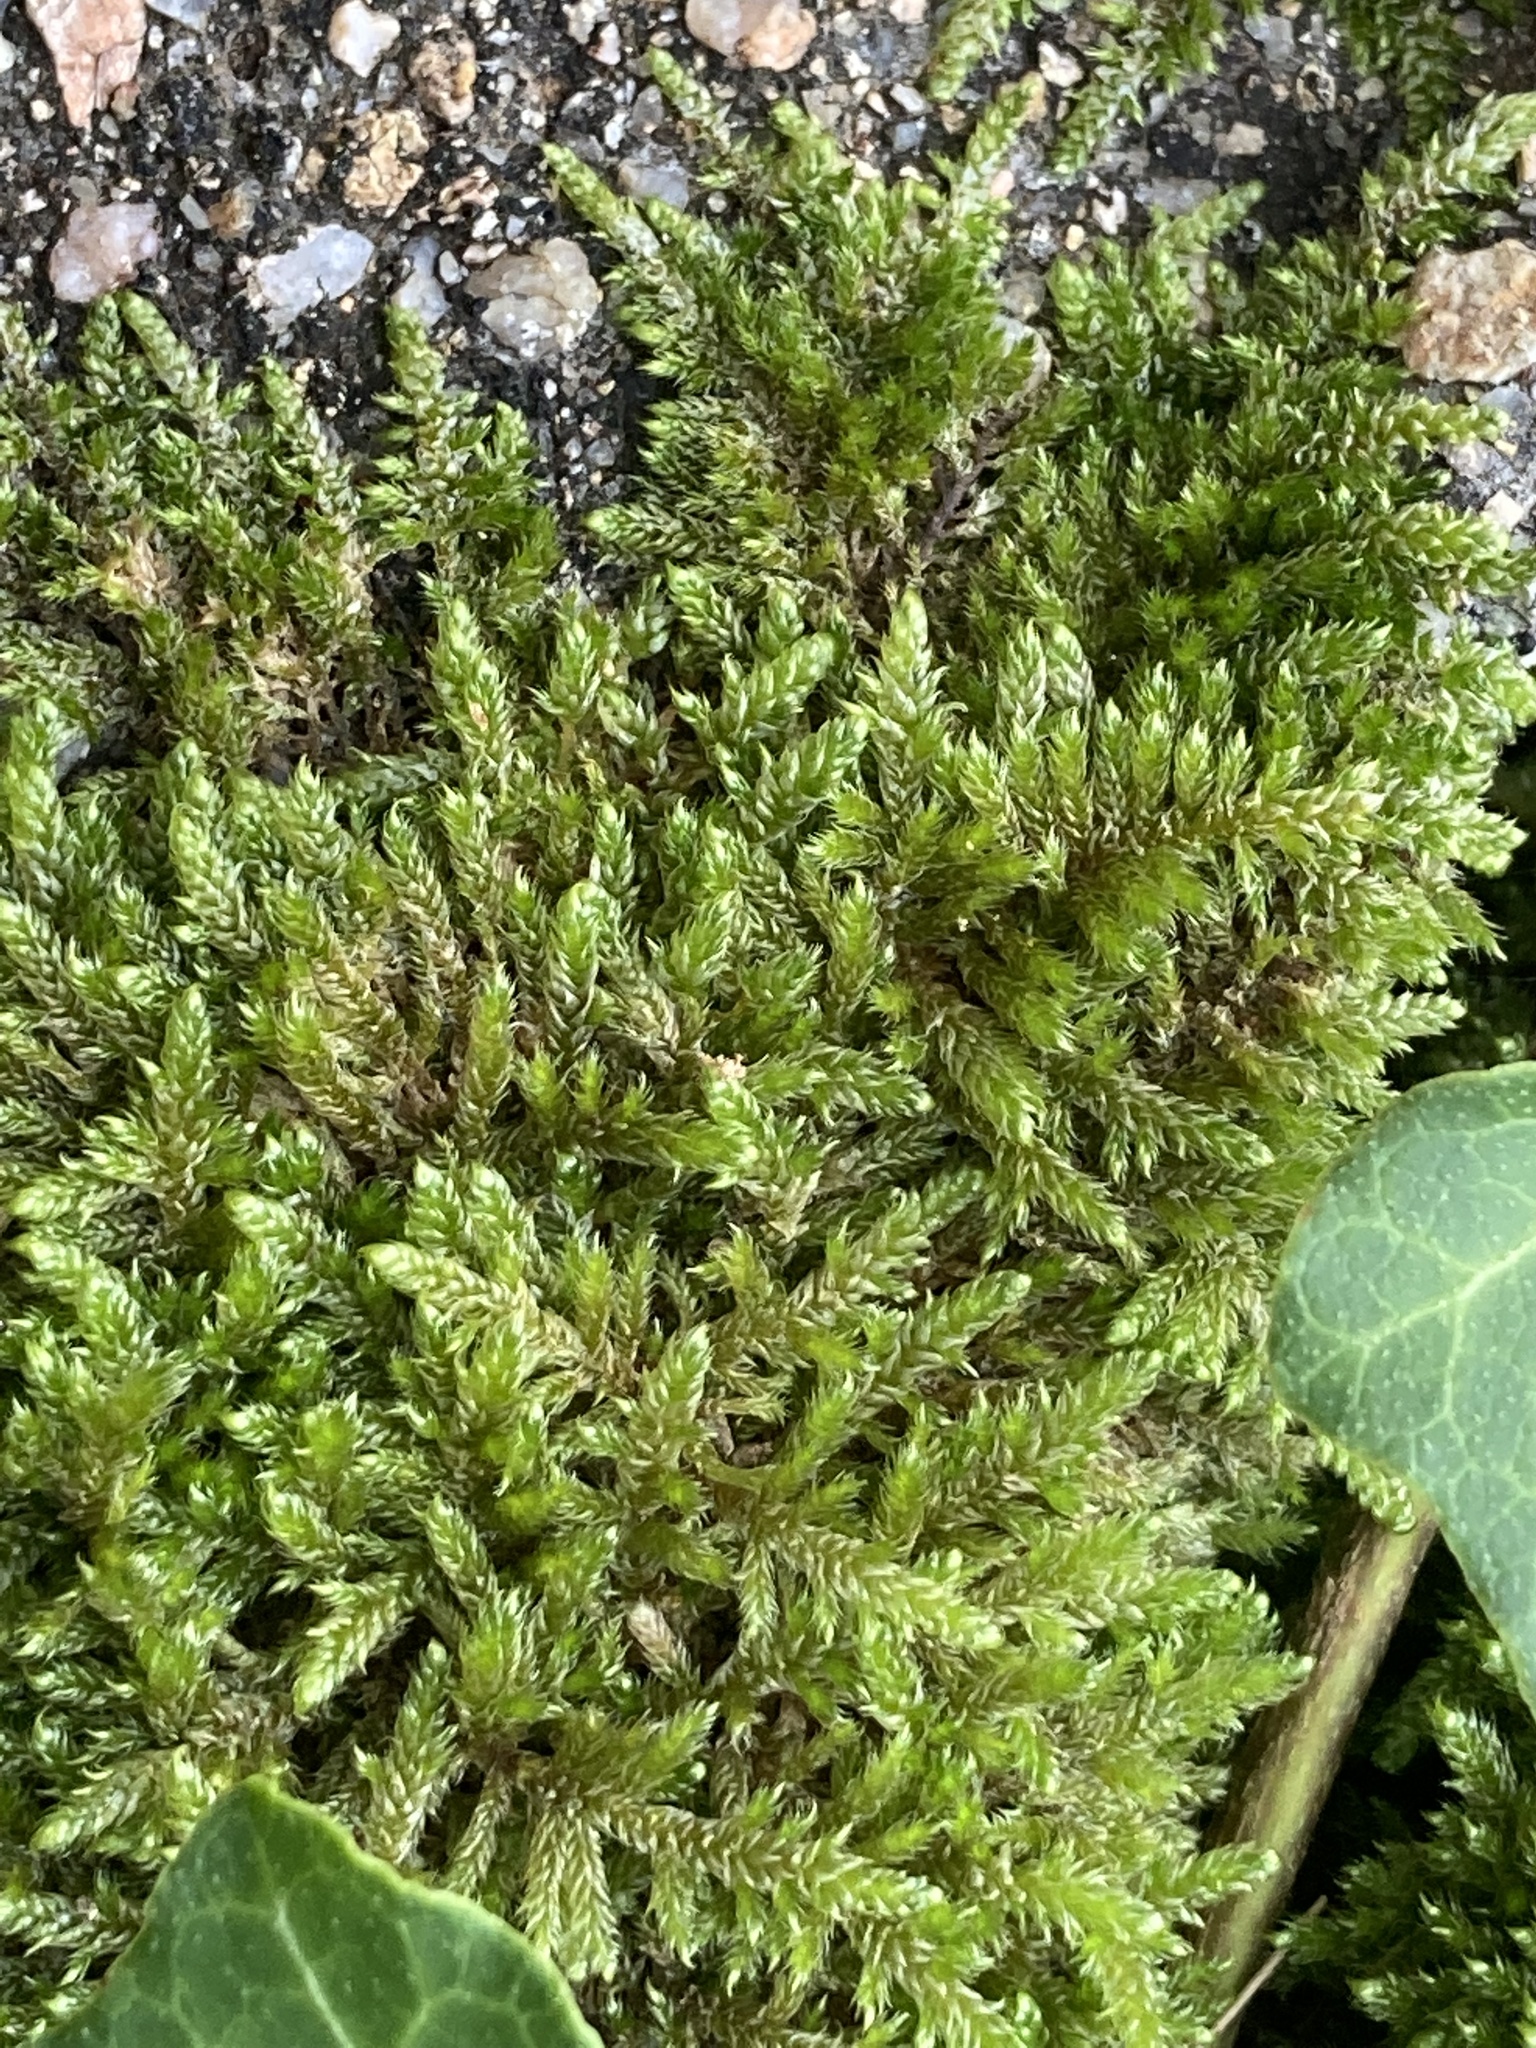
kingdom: Plantae
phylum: Bryophyta
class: Bryopsida
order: Hypnales
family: Hypnaceae
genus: Hypnum
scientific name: Hypnum cupressiforme
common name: Cypress-leaved plait-moss
